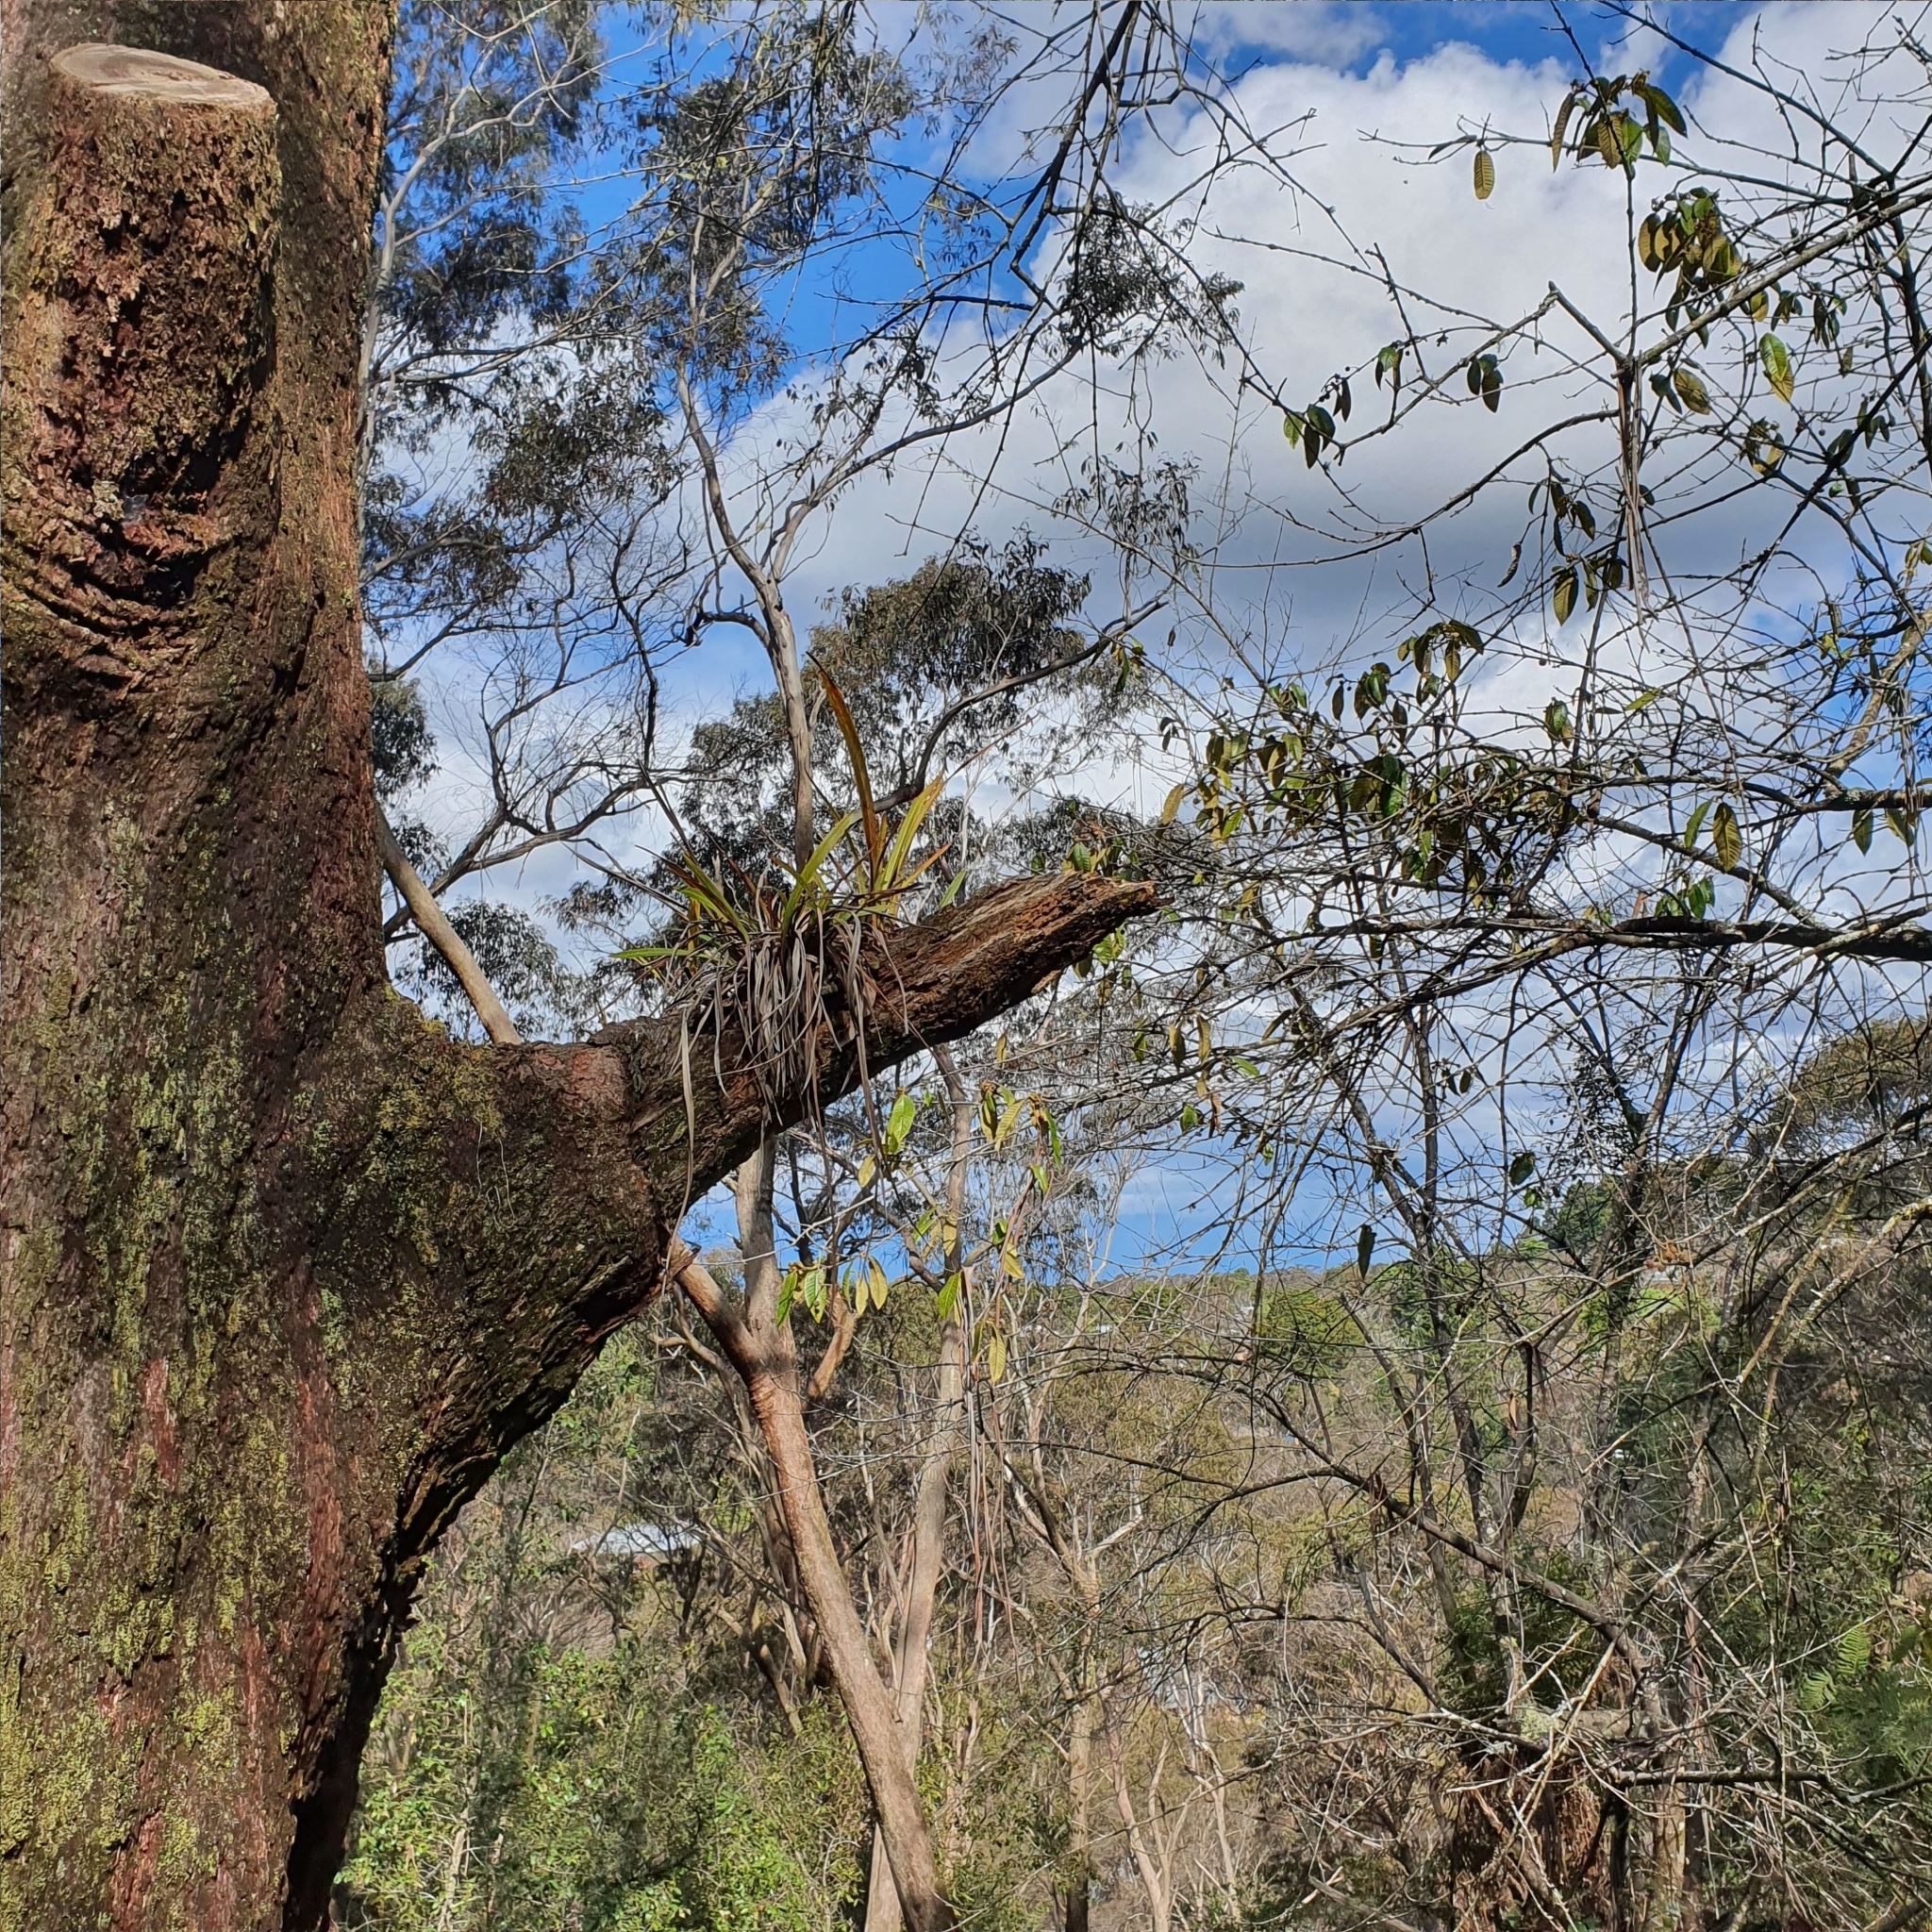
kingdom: Plantae
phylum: Tracheophyta
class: Liliopsida
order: Asparagales
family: Orchidaceae
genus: Cymbidium
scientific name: Cymbidium suave
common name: Snake orchid
